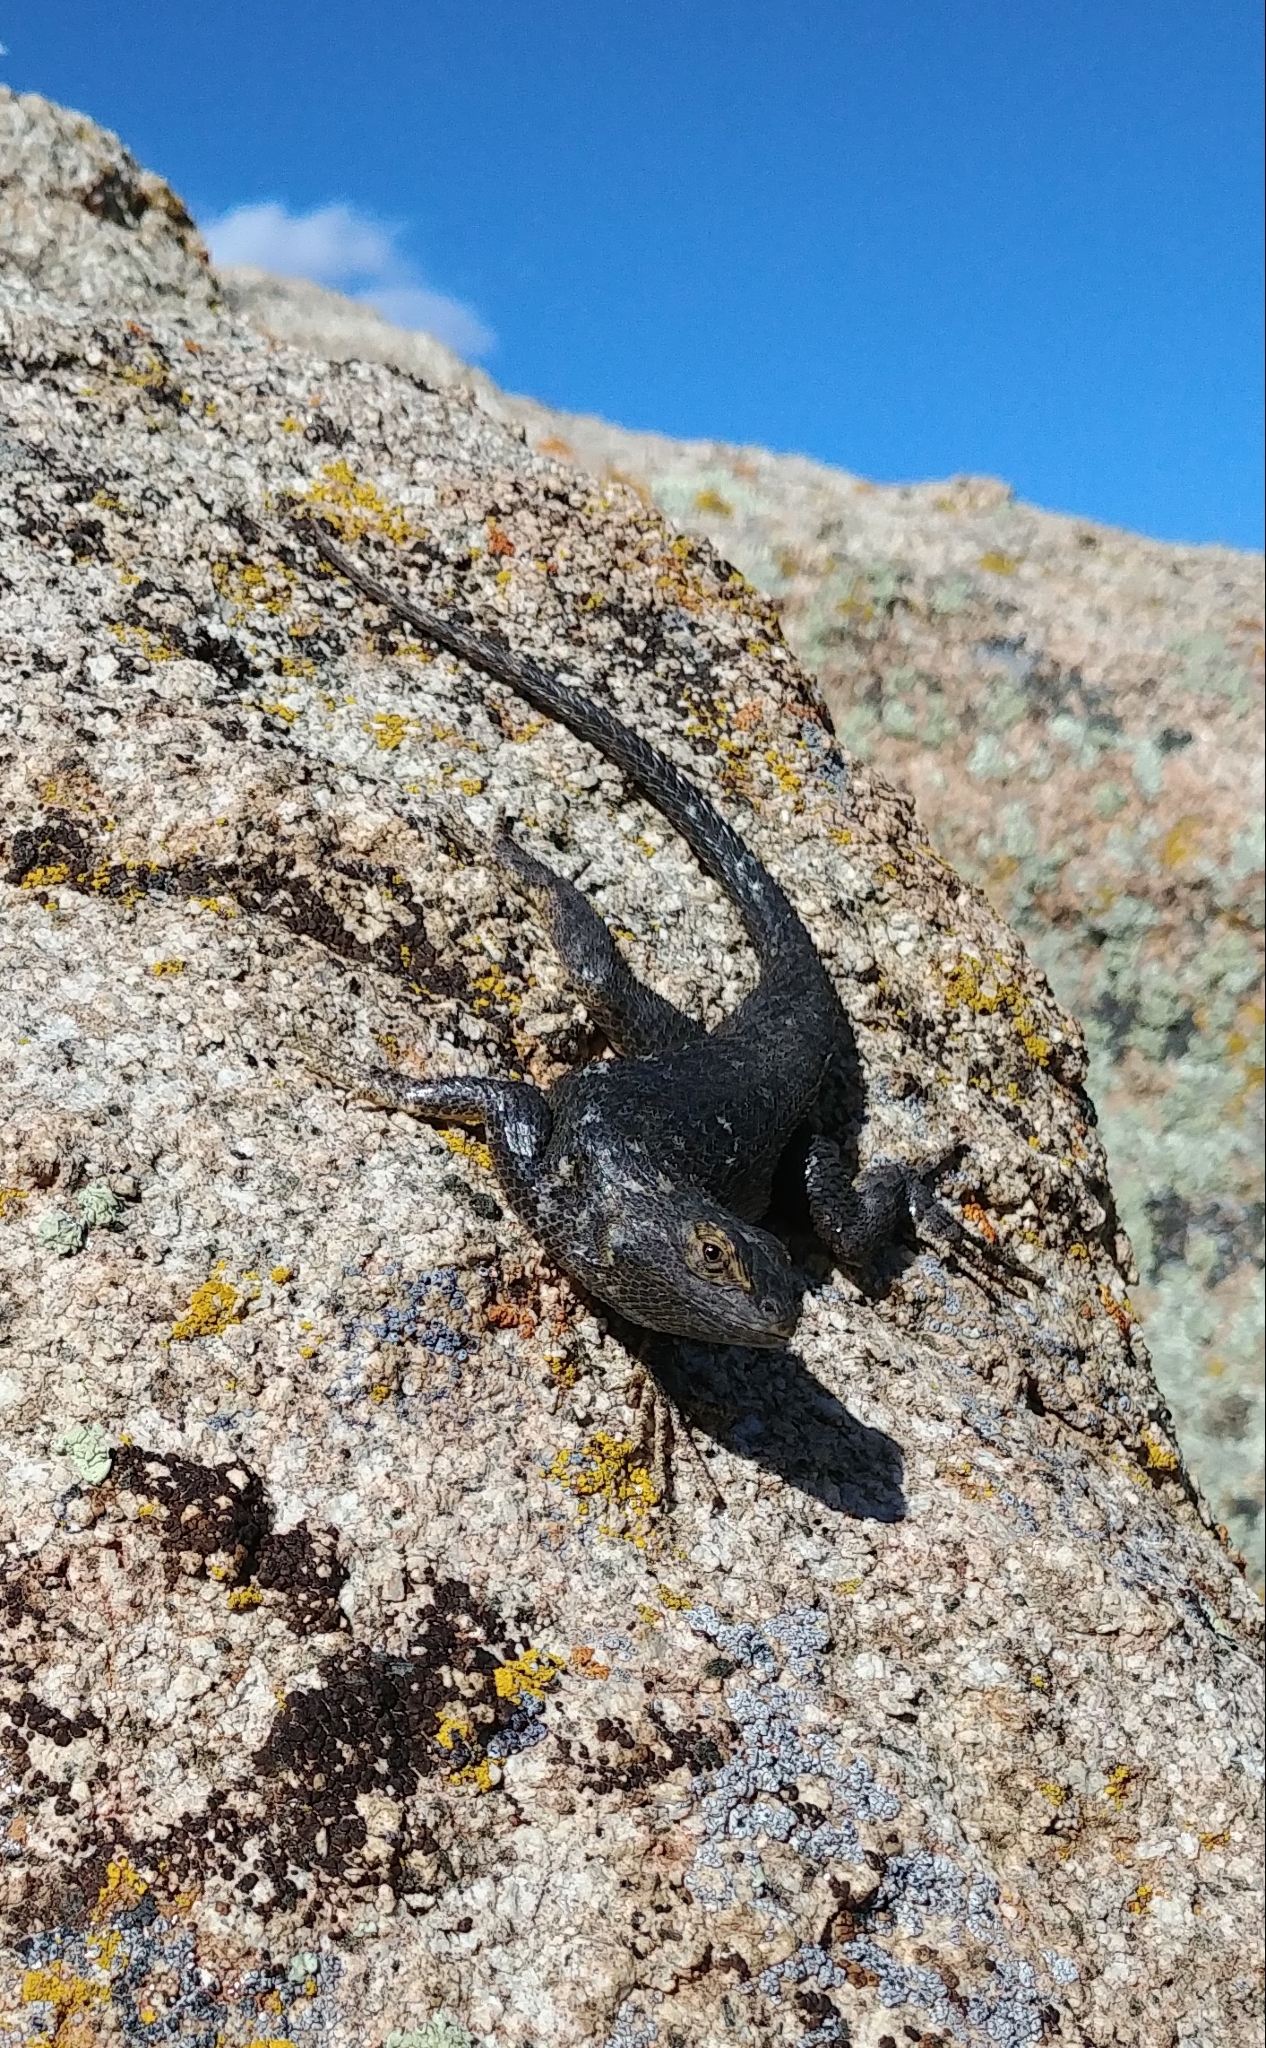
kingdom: Animalia
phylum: Chordata
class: Squamata
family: Phrynosomatidae
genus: Sceloporus
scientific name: Sceloporus occidentalis
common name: Western fence lizard
